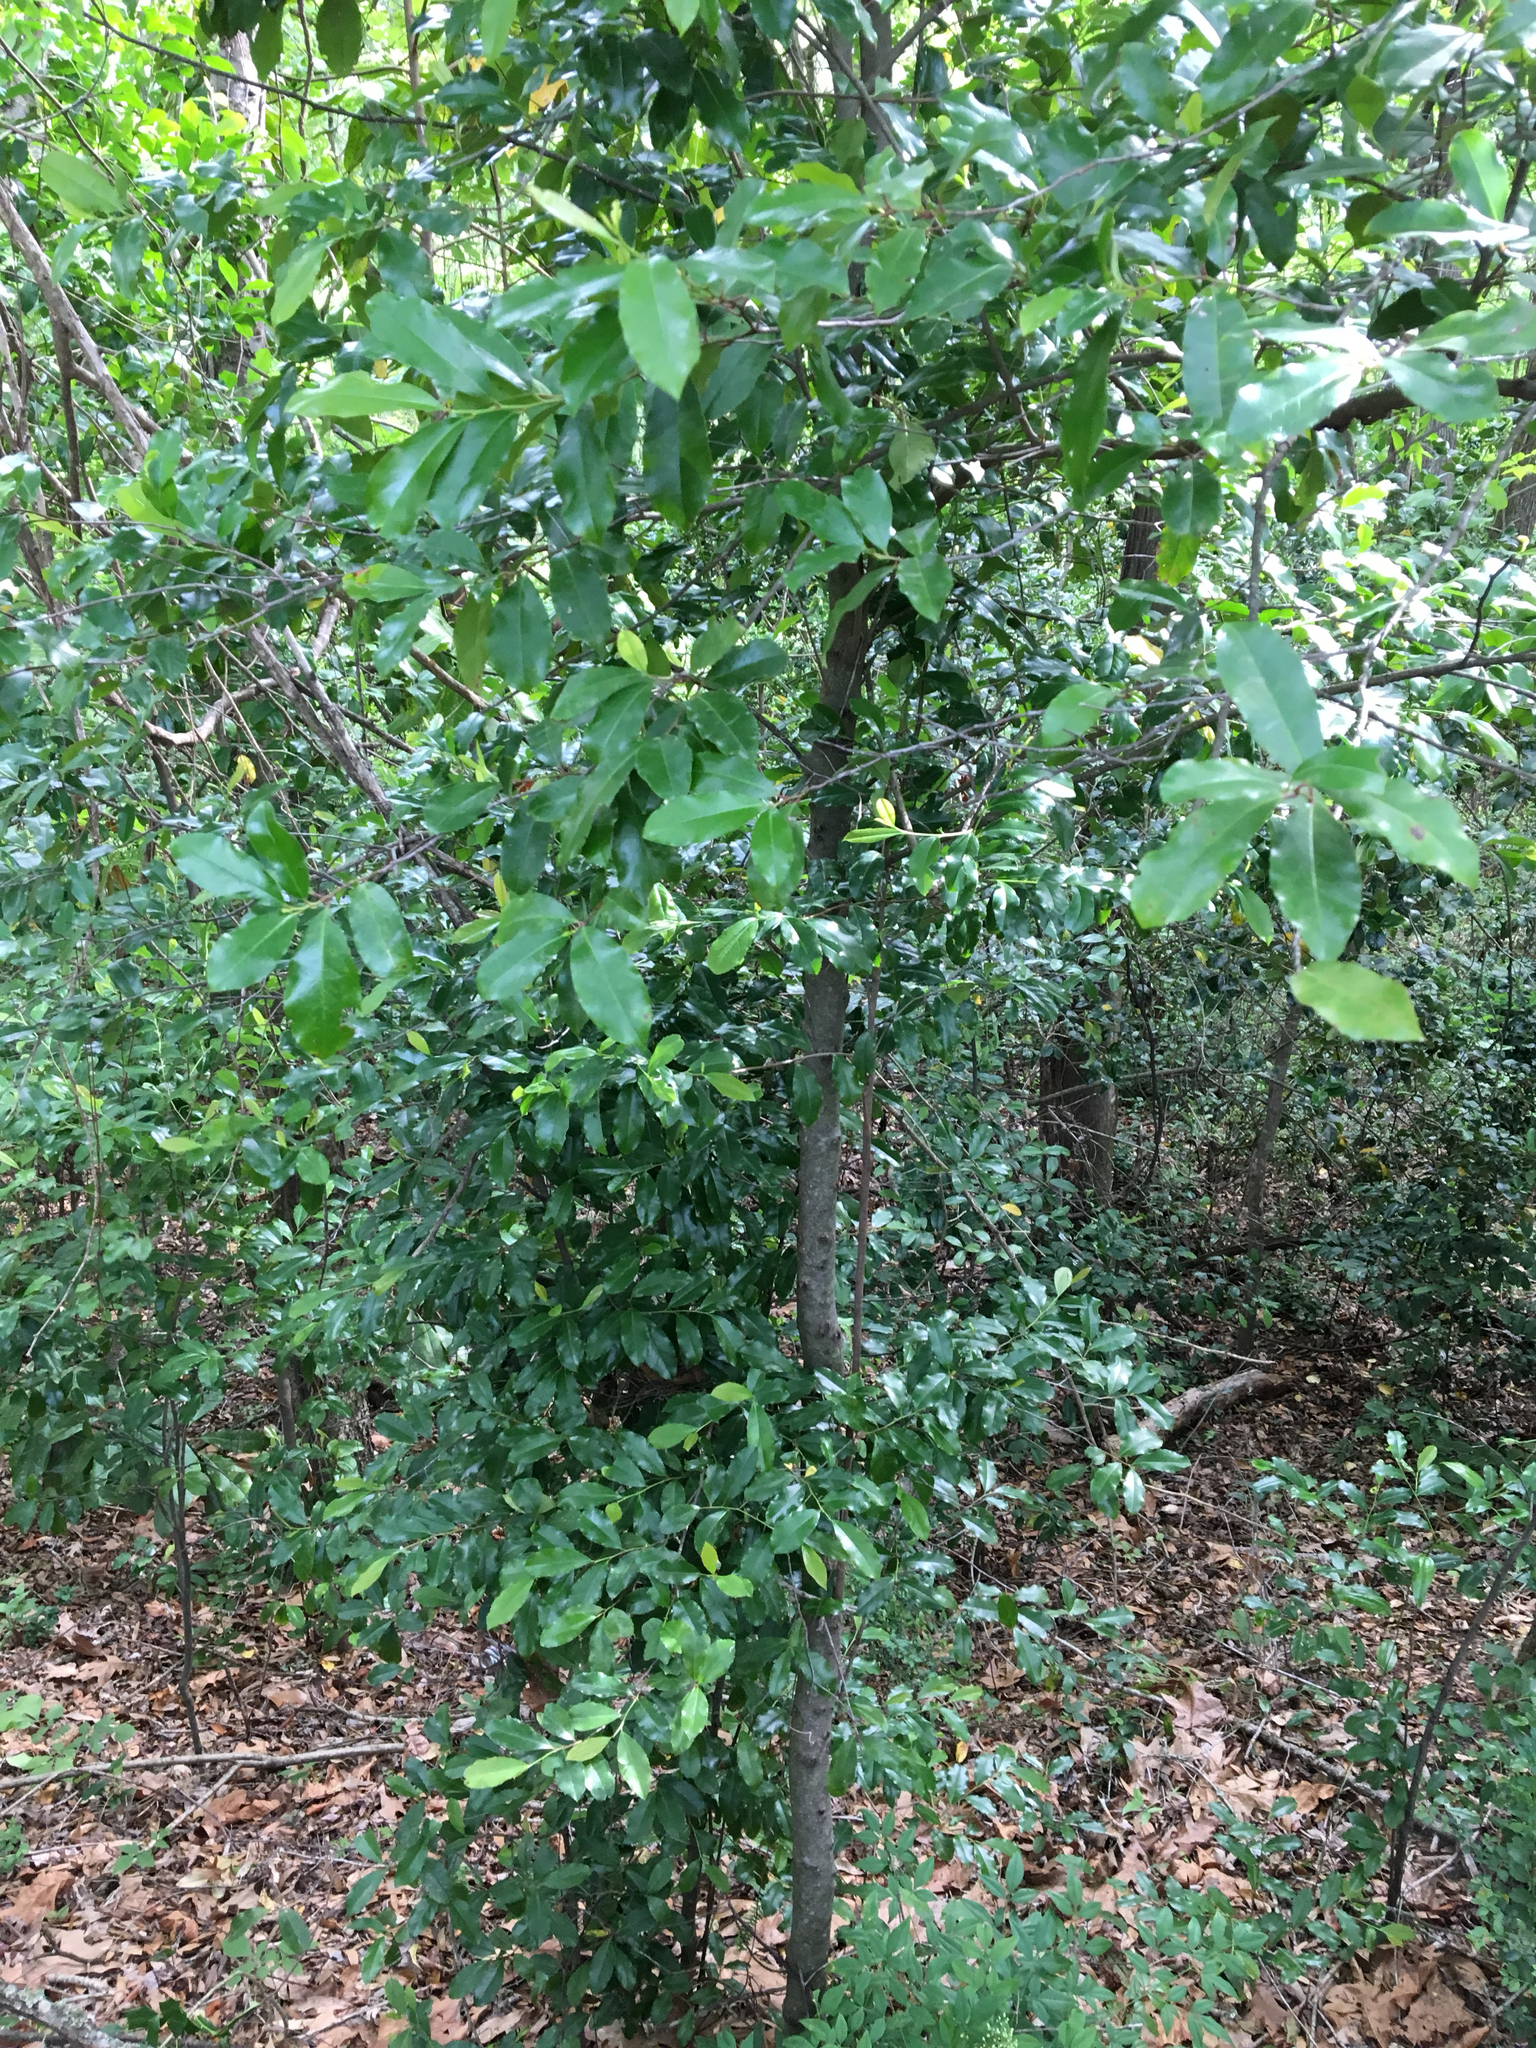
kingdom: Plantae
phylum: Tracheophyta
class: Magnoliopsida
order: Rosales
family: Rosaceae
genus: Prunus
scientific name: Prunus caroliniana
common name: Carolina laurel cherry
